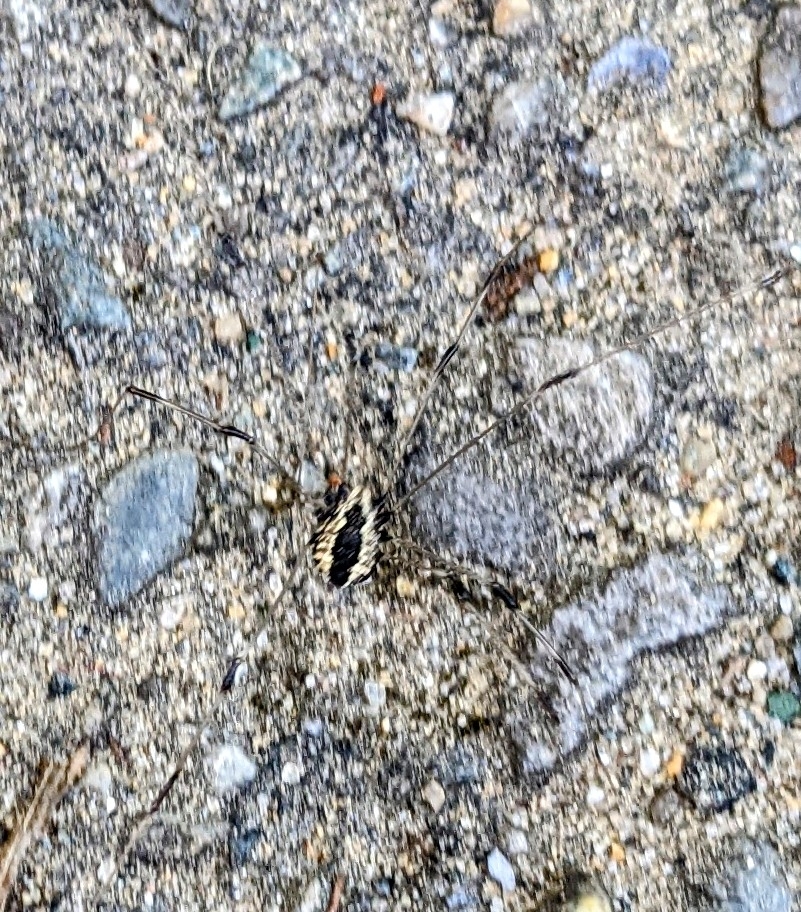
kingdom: Animalia
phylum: Arthropoda
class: Arachnida
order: Opiliones
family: Sclerosomatidae
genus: Leiobunum
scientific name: Leiobunum vittatum
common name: Eastern harvestman
